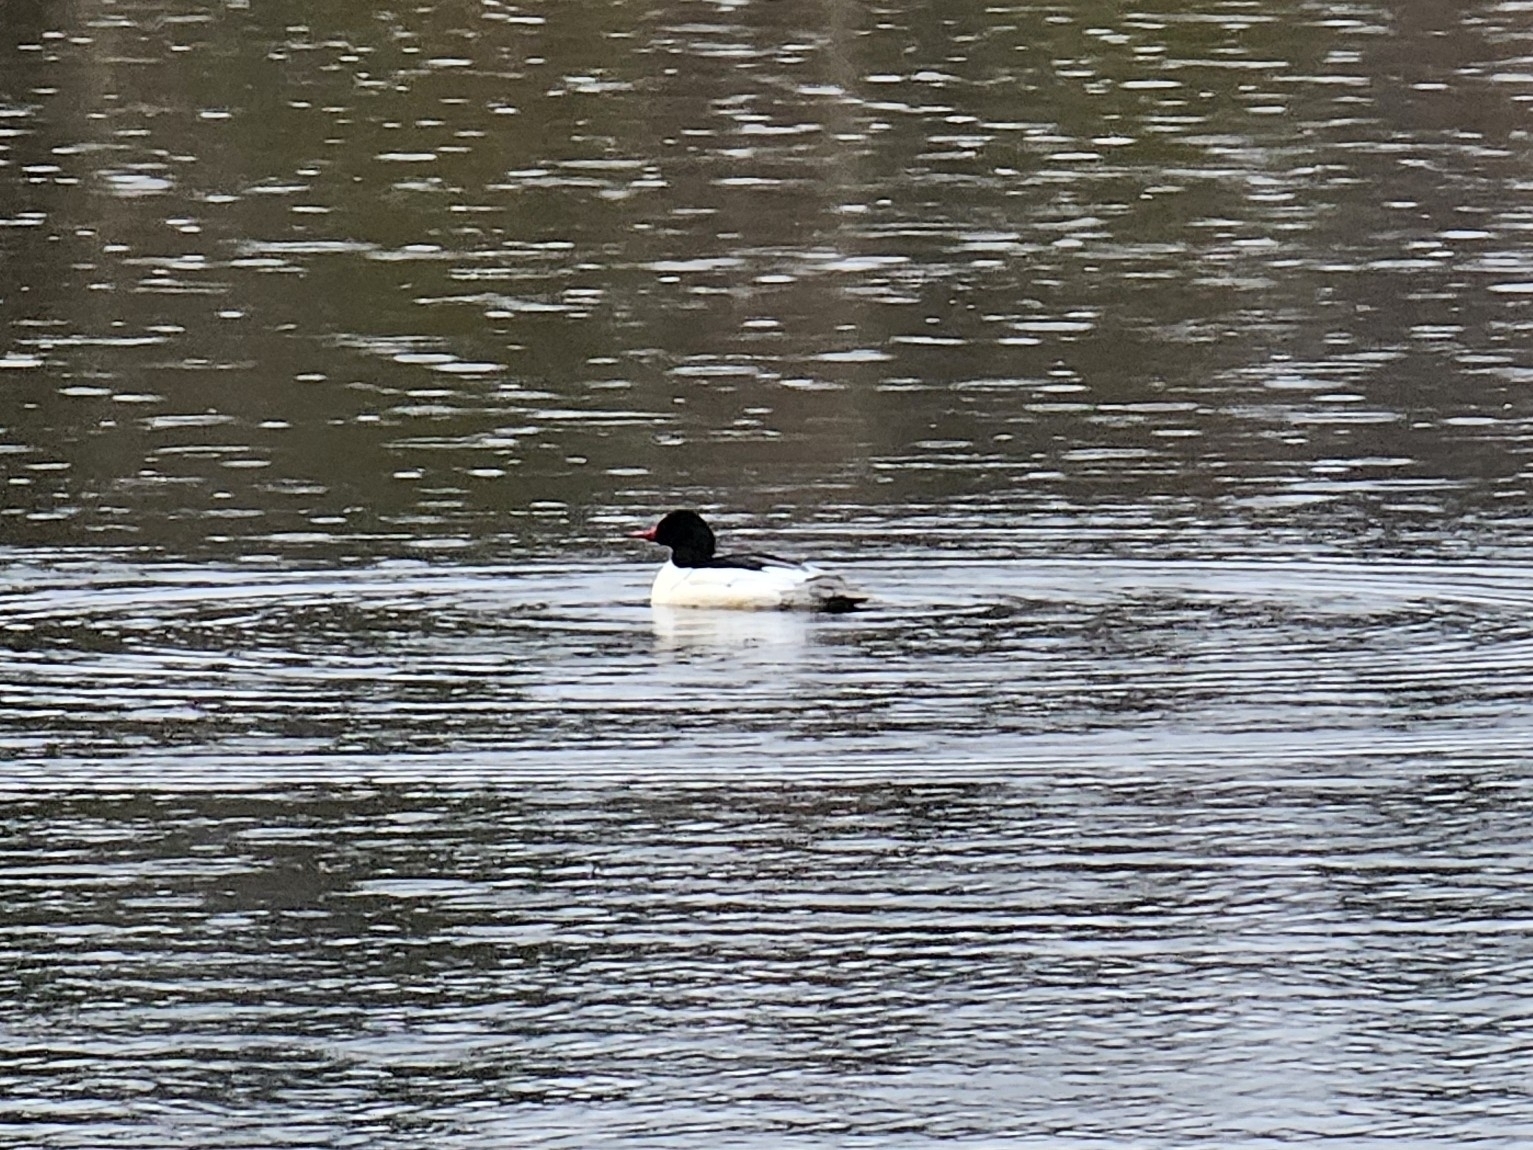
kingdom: Animalia
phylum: Chordata
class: Aves
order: Anseriformes
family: Anatidae
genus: Mergus
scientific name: Mergus merganser
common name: Common merganser
